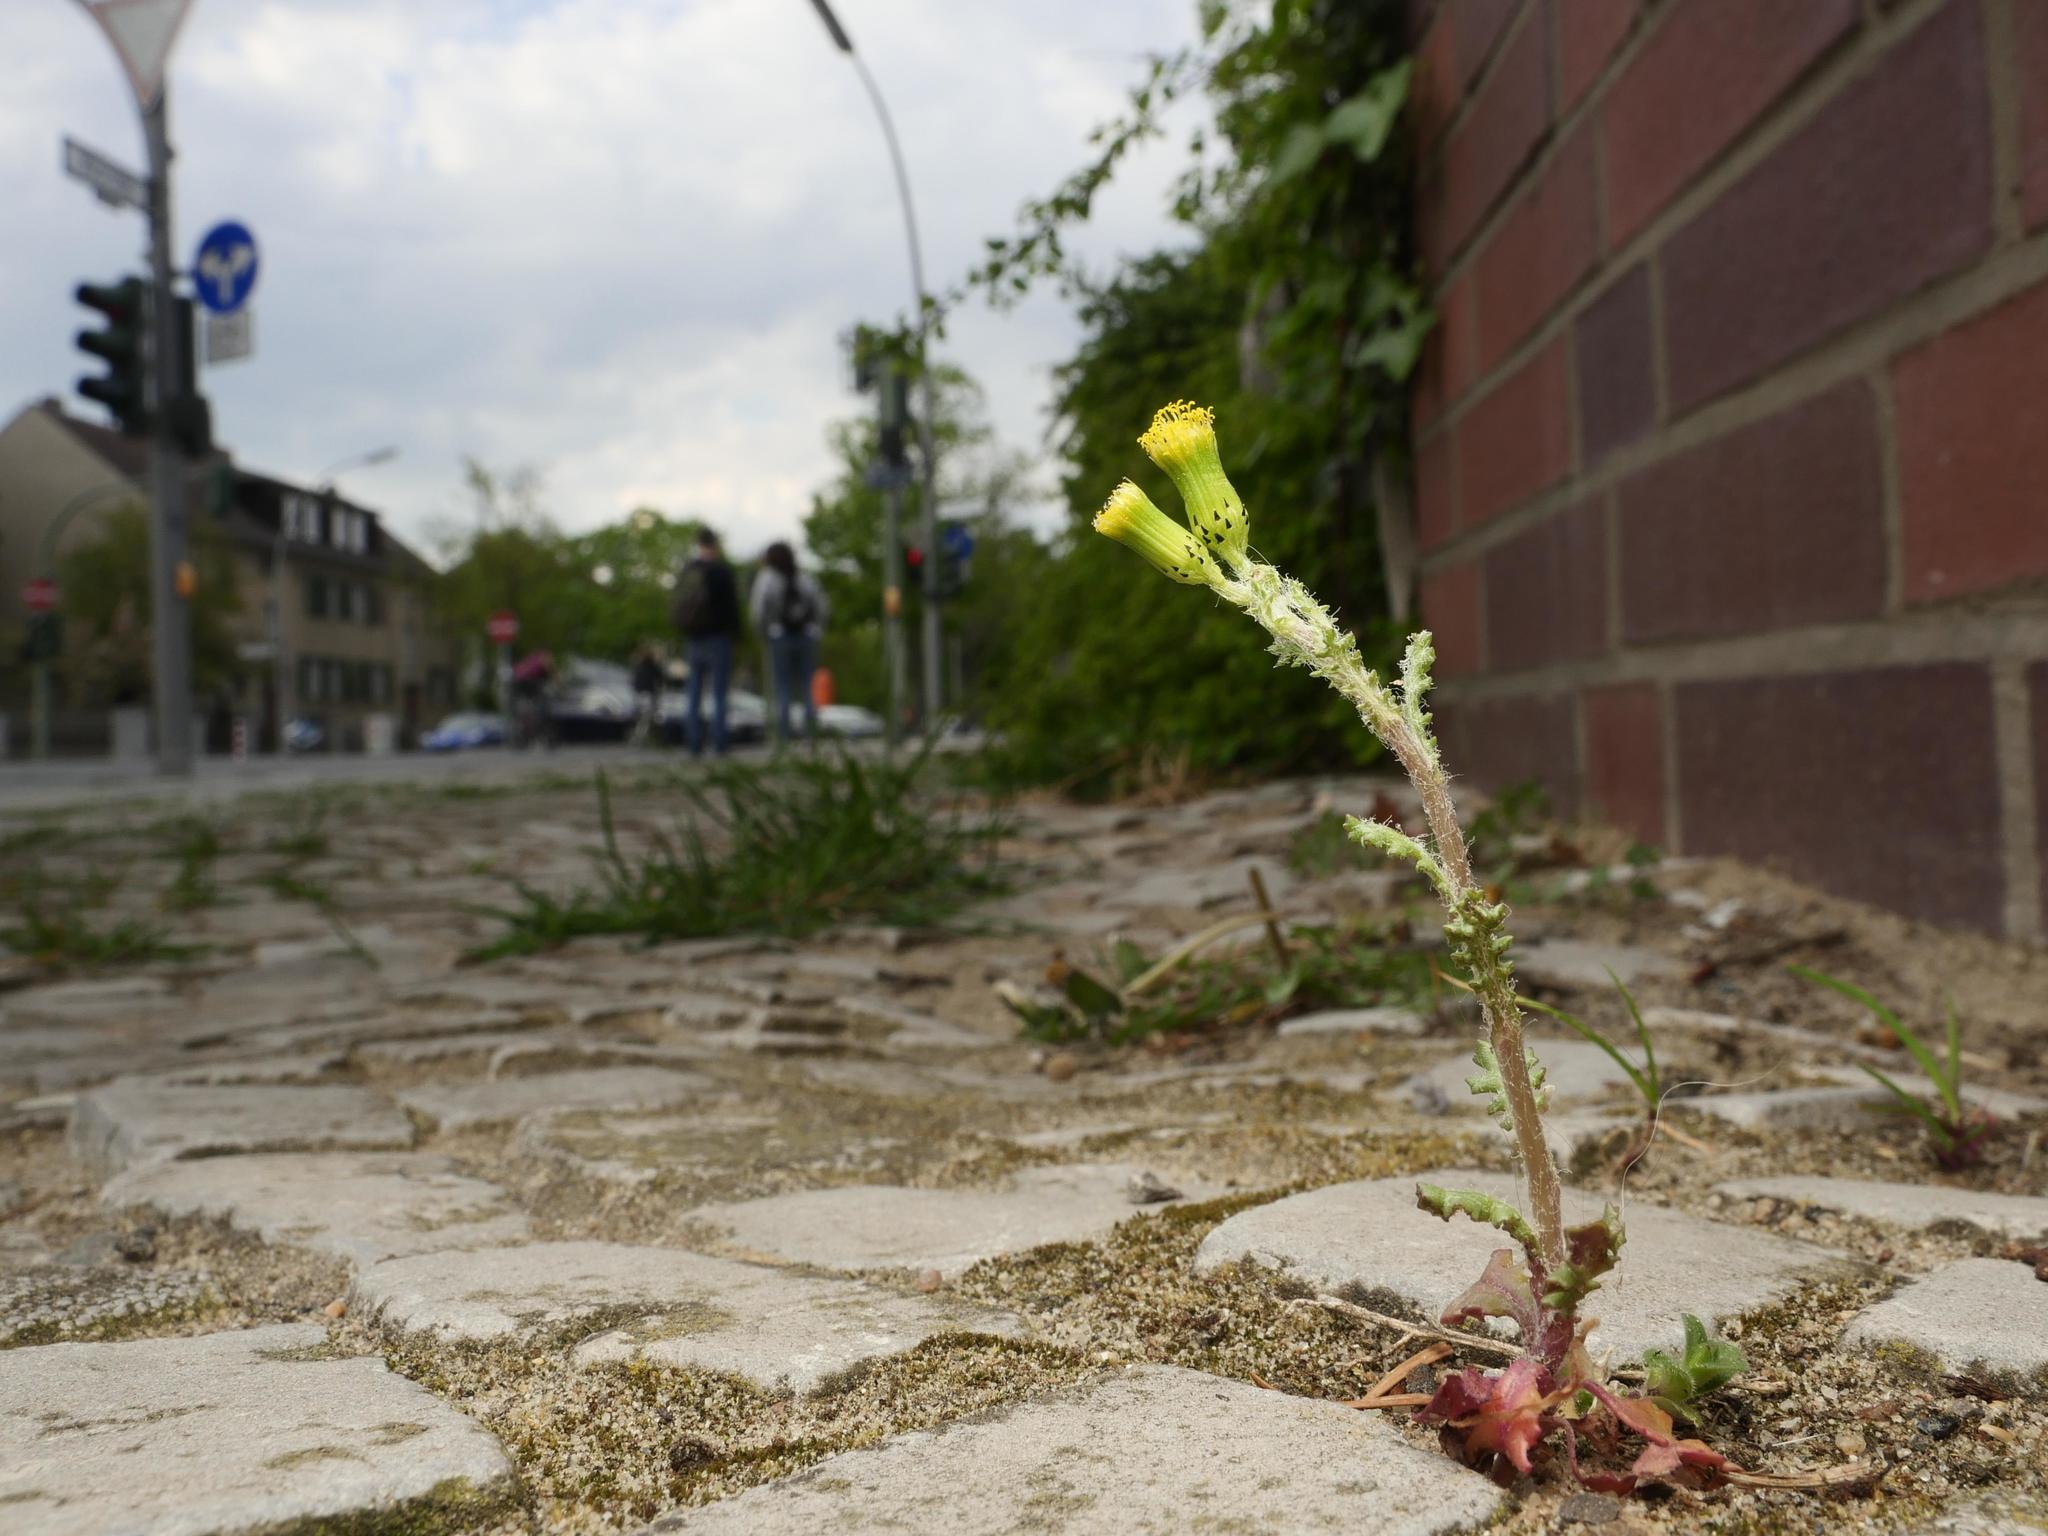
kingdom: Plantae
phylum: Tracheophyta
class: Magnoliopsida
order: Asterales
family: Asteraceae
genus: Senecio
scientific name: Senecio vulgaris
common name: Old-man-in-the-spring
